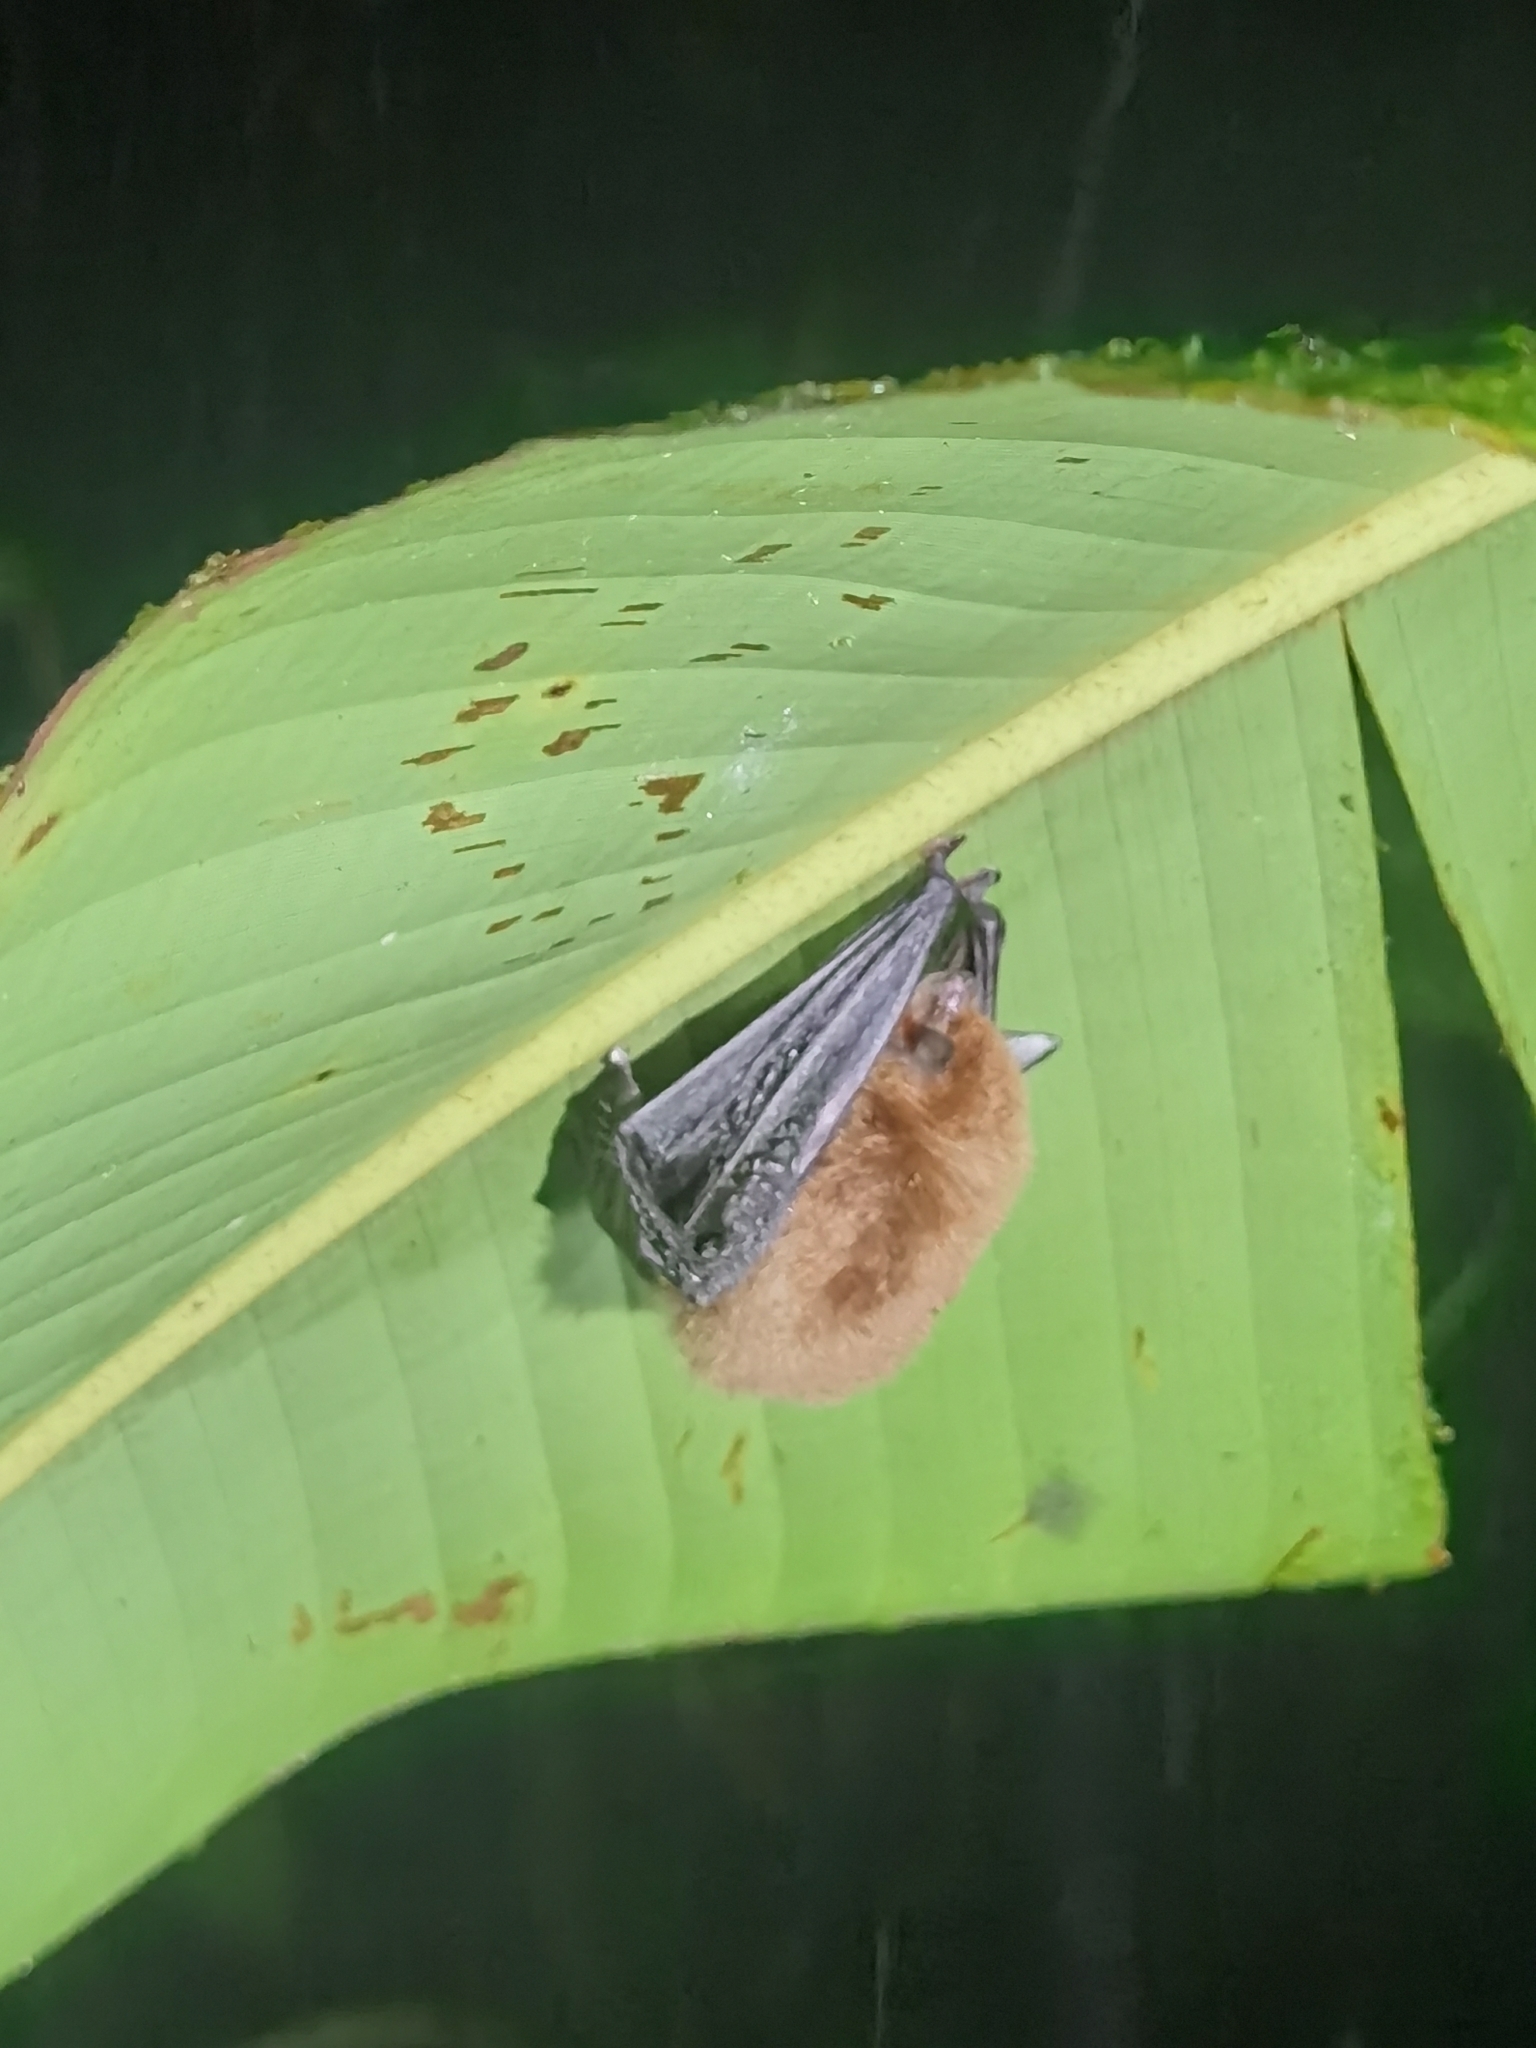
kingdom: Animalia
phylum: Chordata
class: Mammalia
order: Chiroptera
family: Thyropteridae
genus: Thyroptera
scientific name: Thyroptera tricolor
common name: Spix's disk-winged bat
